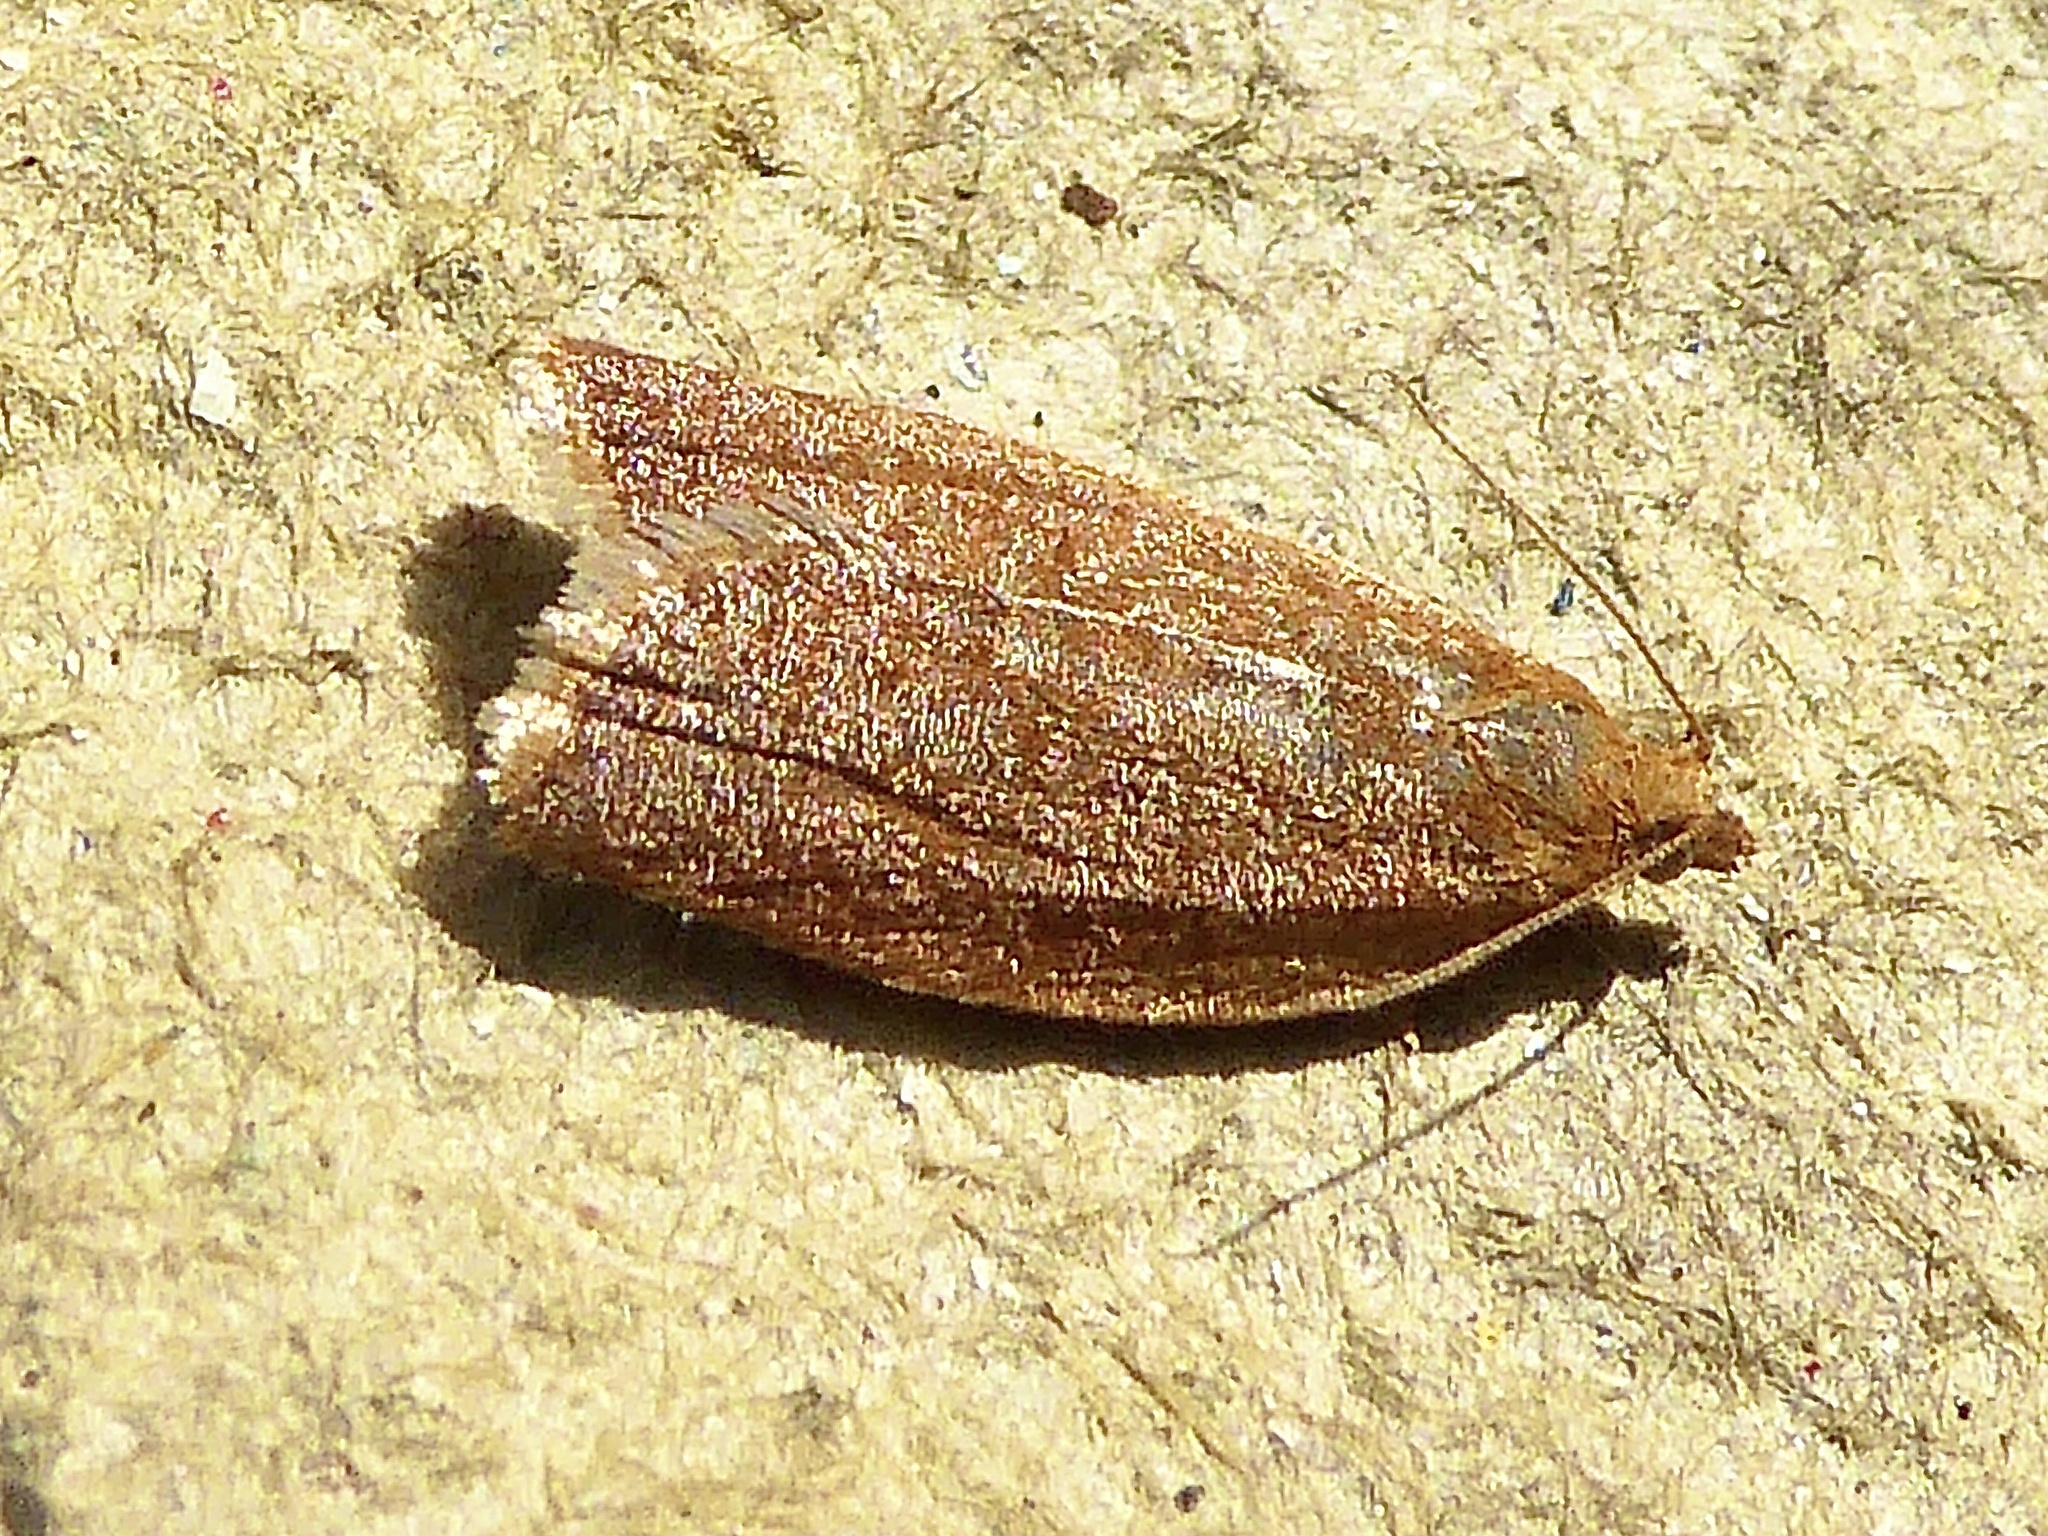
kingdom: Animalia
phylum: Arthropoda
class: Insecta
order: Lepidoptera
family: Tortricidae
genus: Clepsis
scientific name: Clepsis consimilana
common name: Privet tortrix
